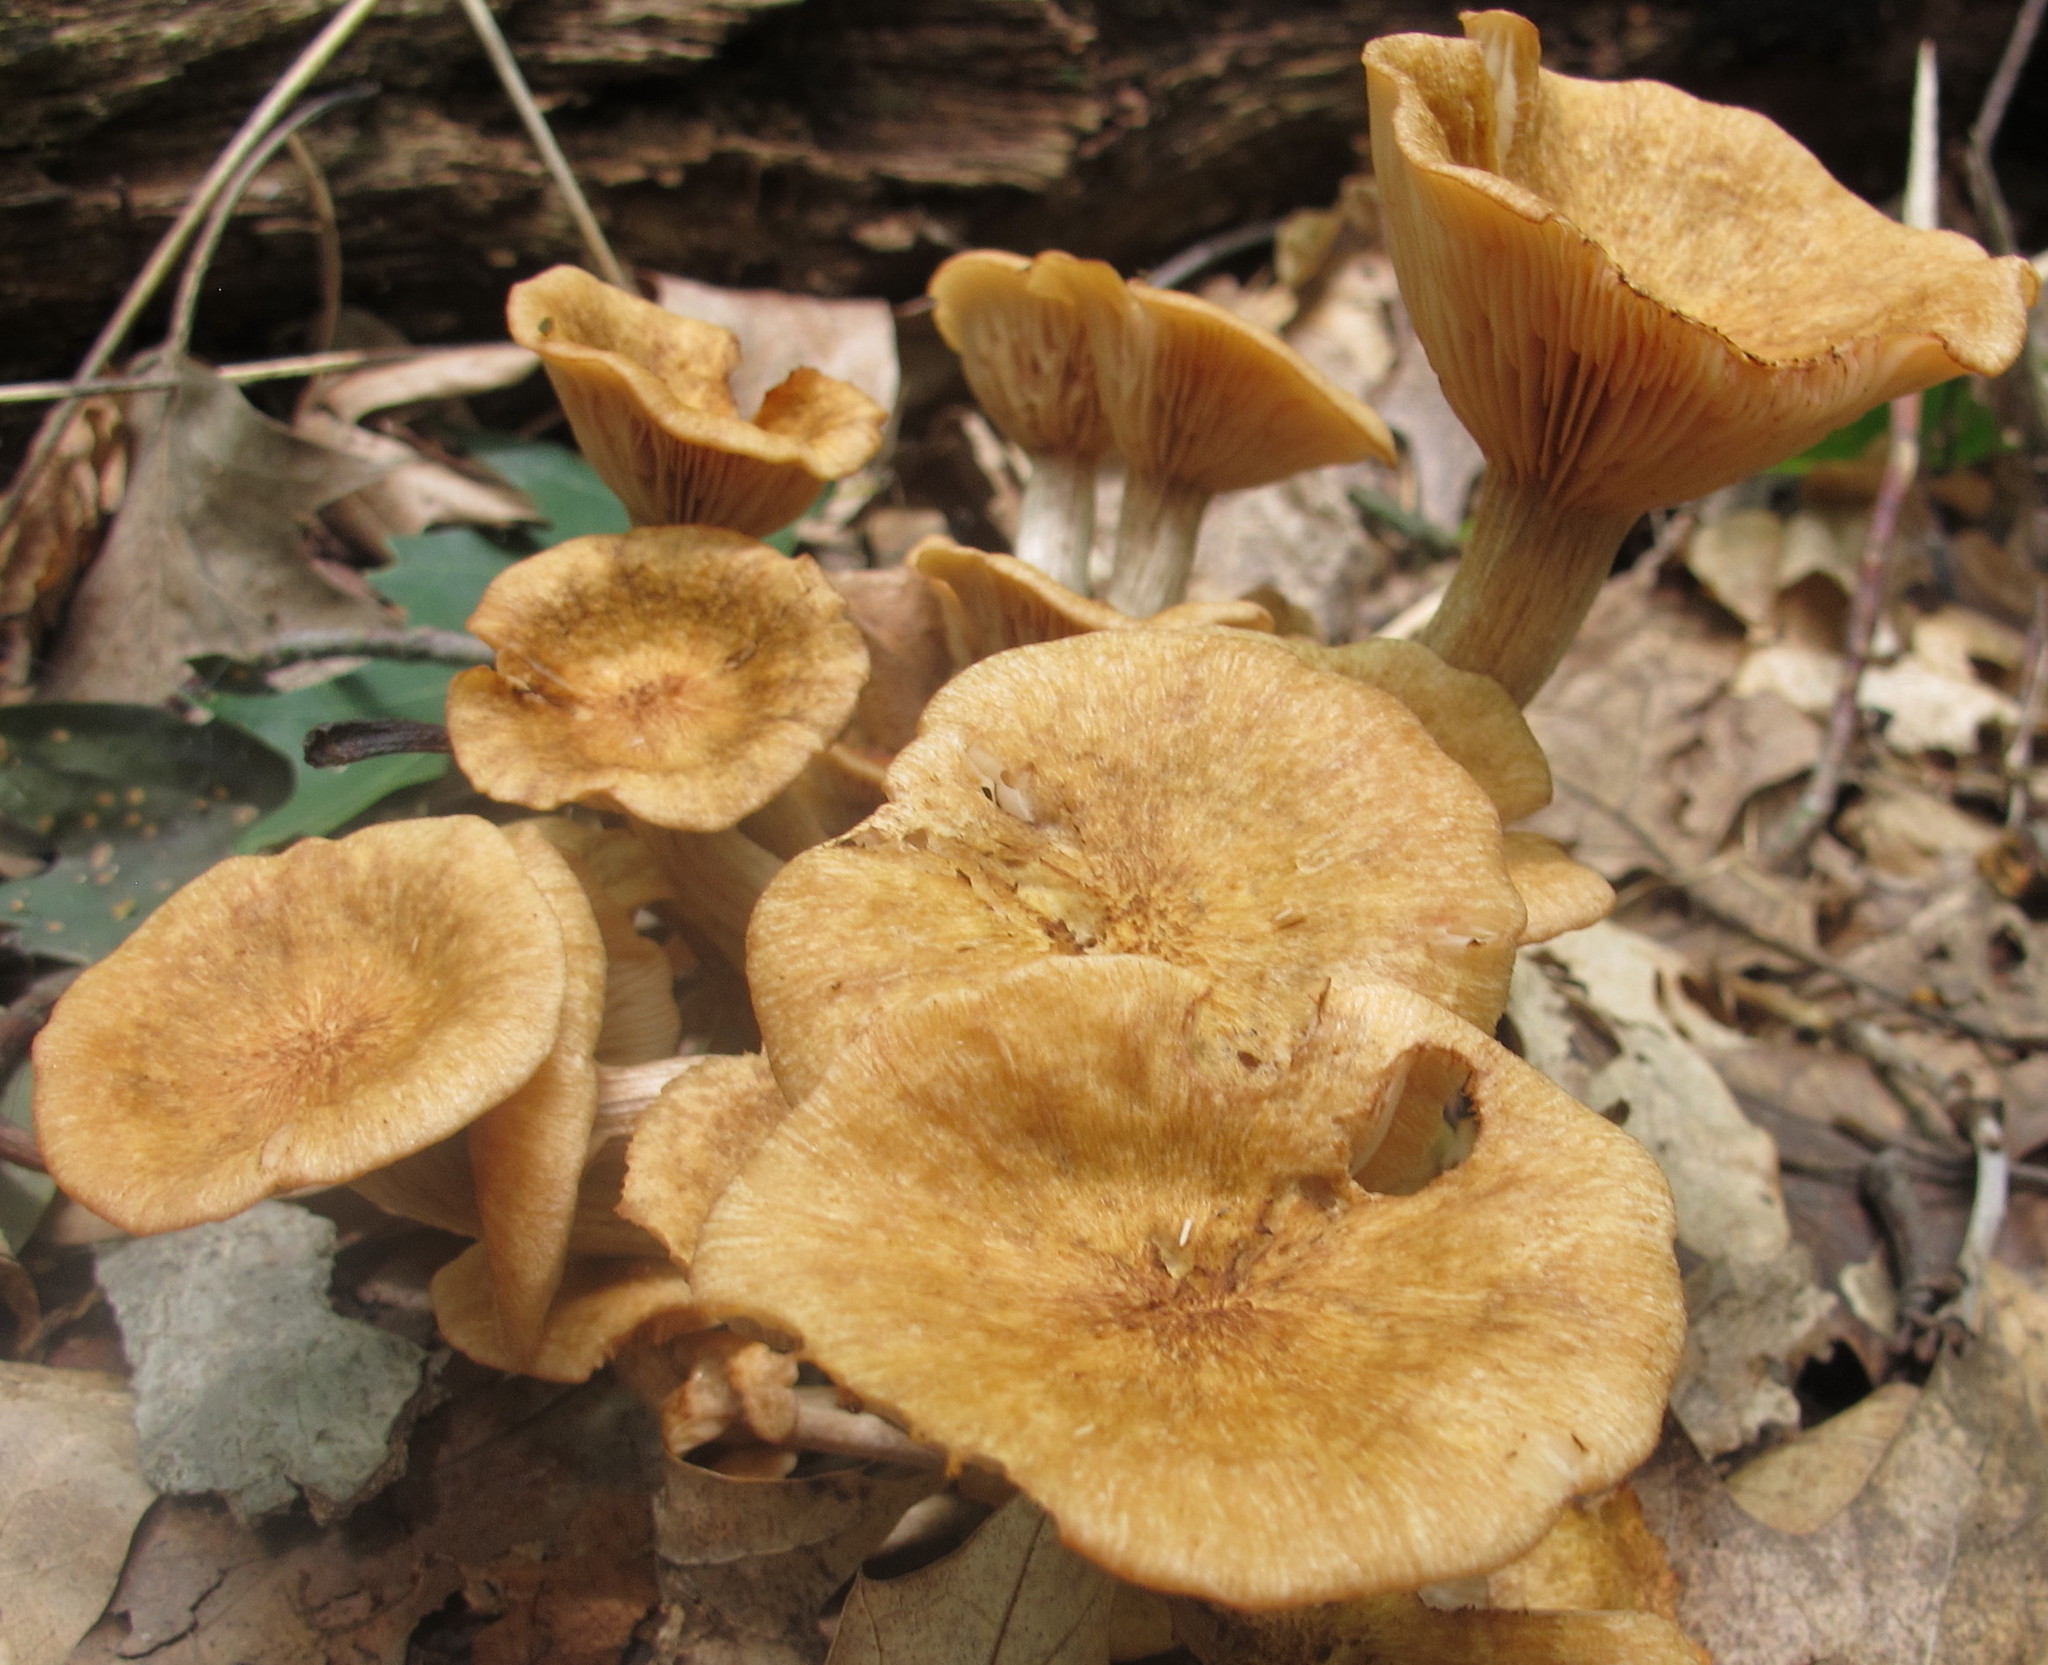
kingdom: Fungi
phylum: Basidiomycota
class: Agaricomycetes
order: Agaricales
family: Physalacriaceae
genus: Desarmillaria
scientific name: Desarmillaria caespitosa
